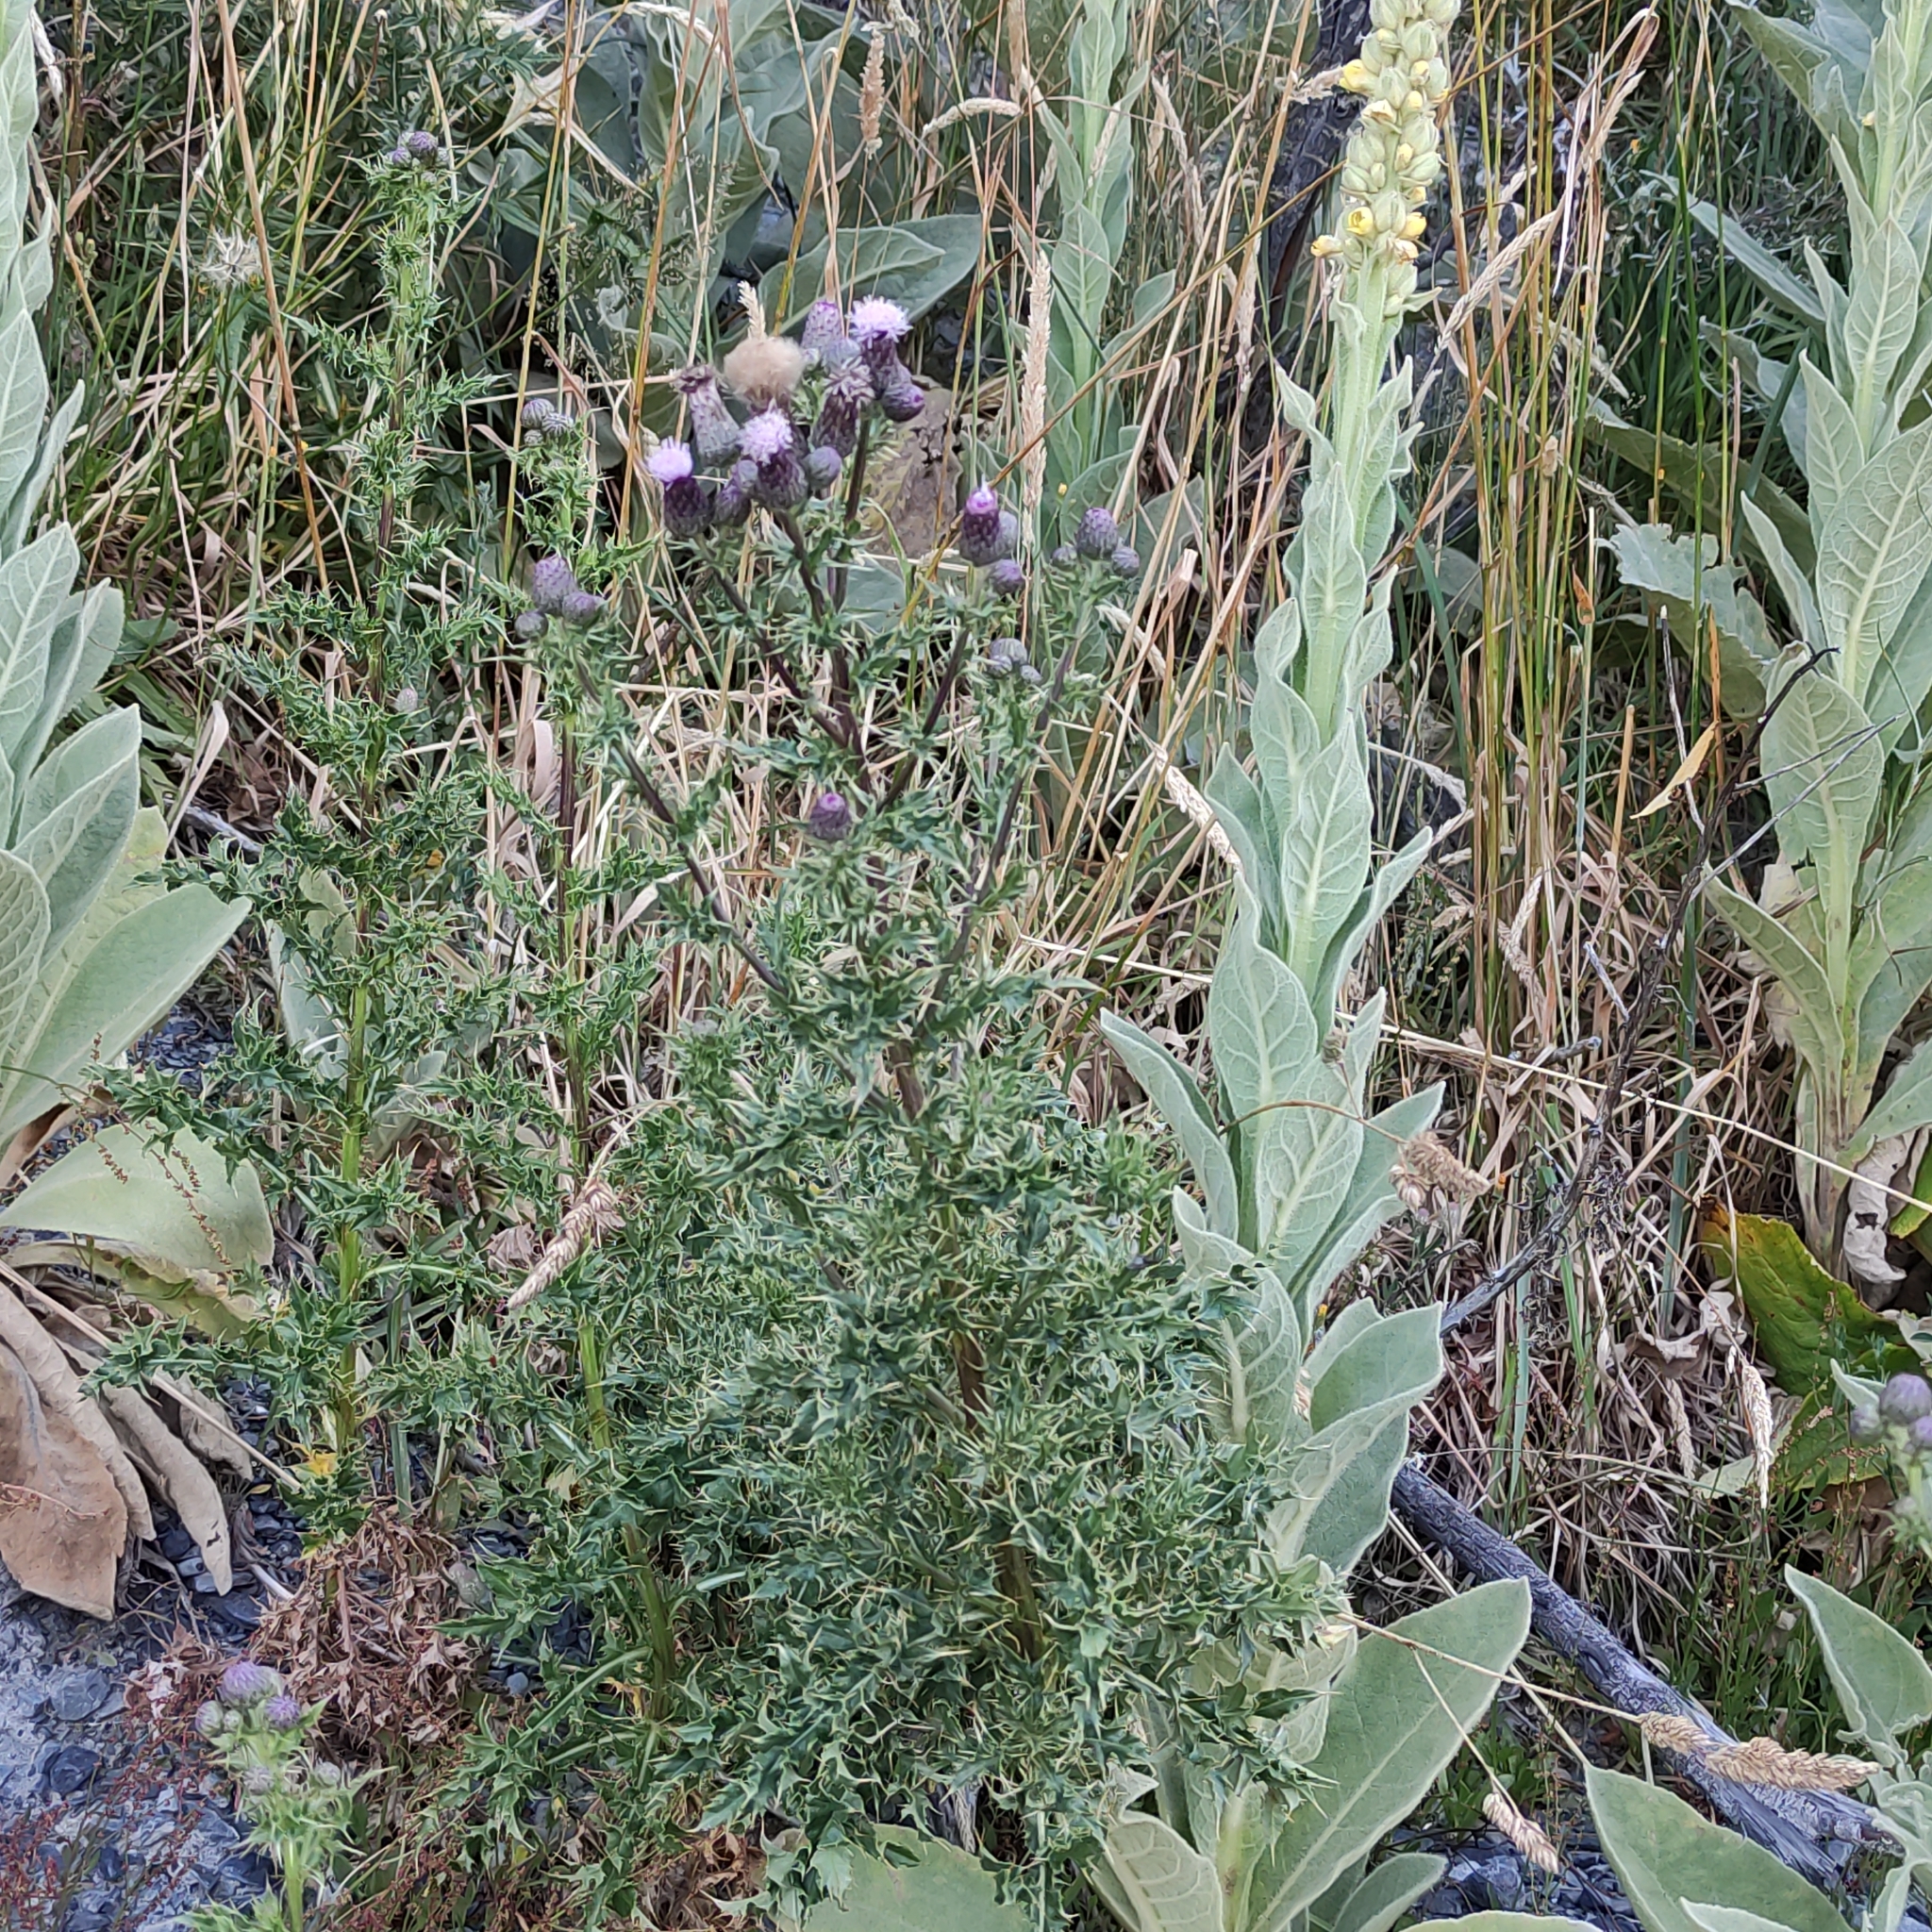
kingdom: Plantae
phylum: Tracheophyta
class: Magnoliopsida
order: Asterales
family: Asteraceae
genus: Cirsium
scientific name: Cirsium arvense
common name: Creeping thistle
